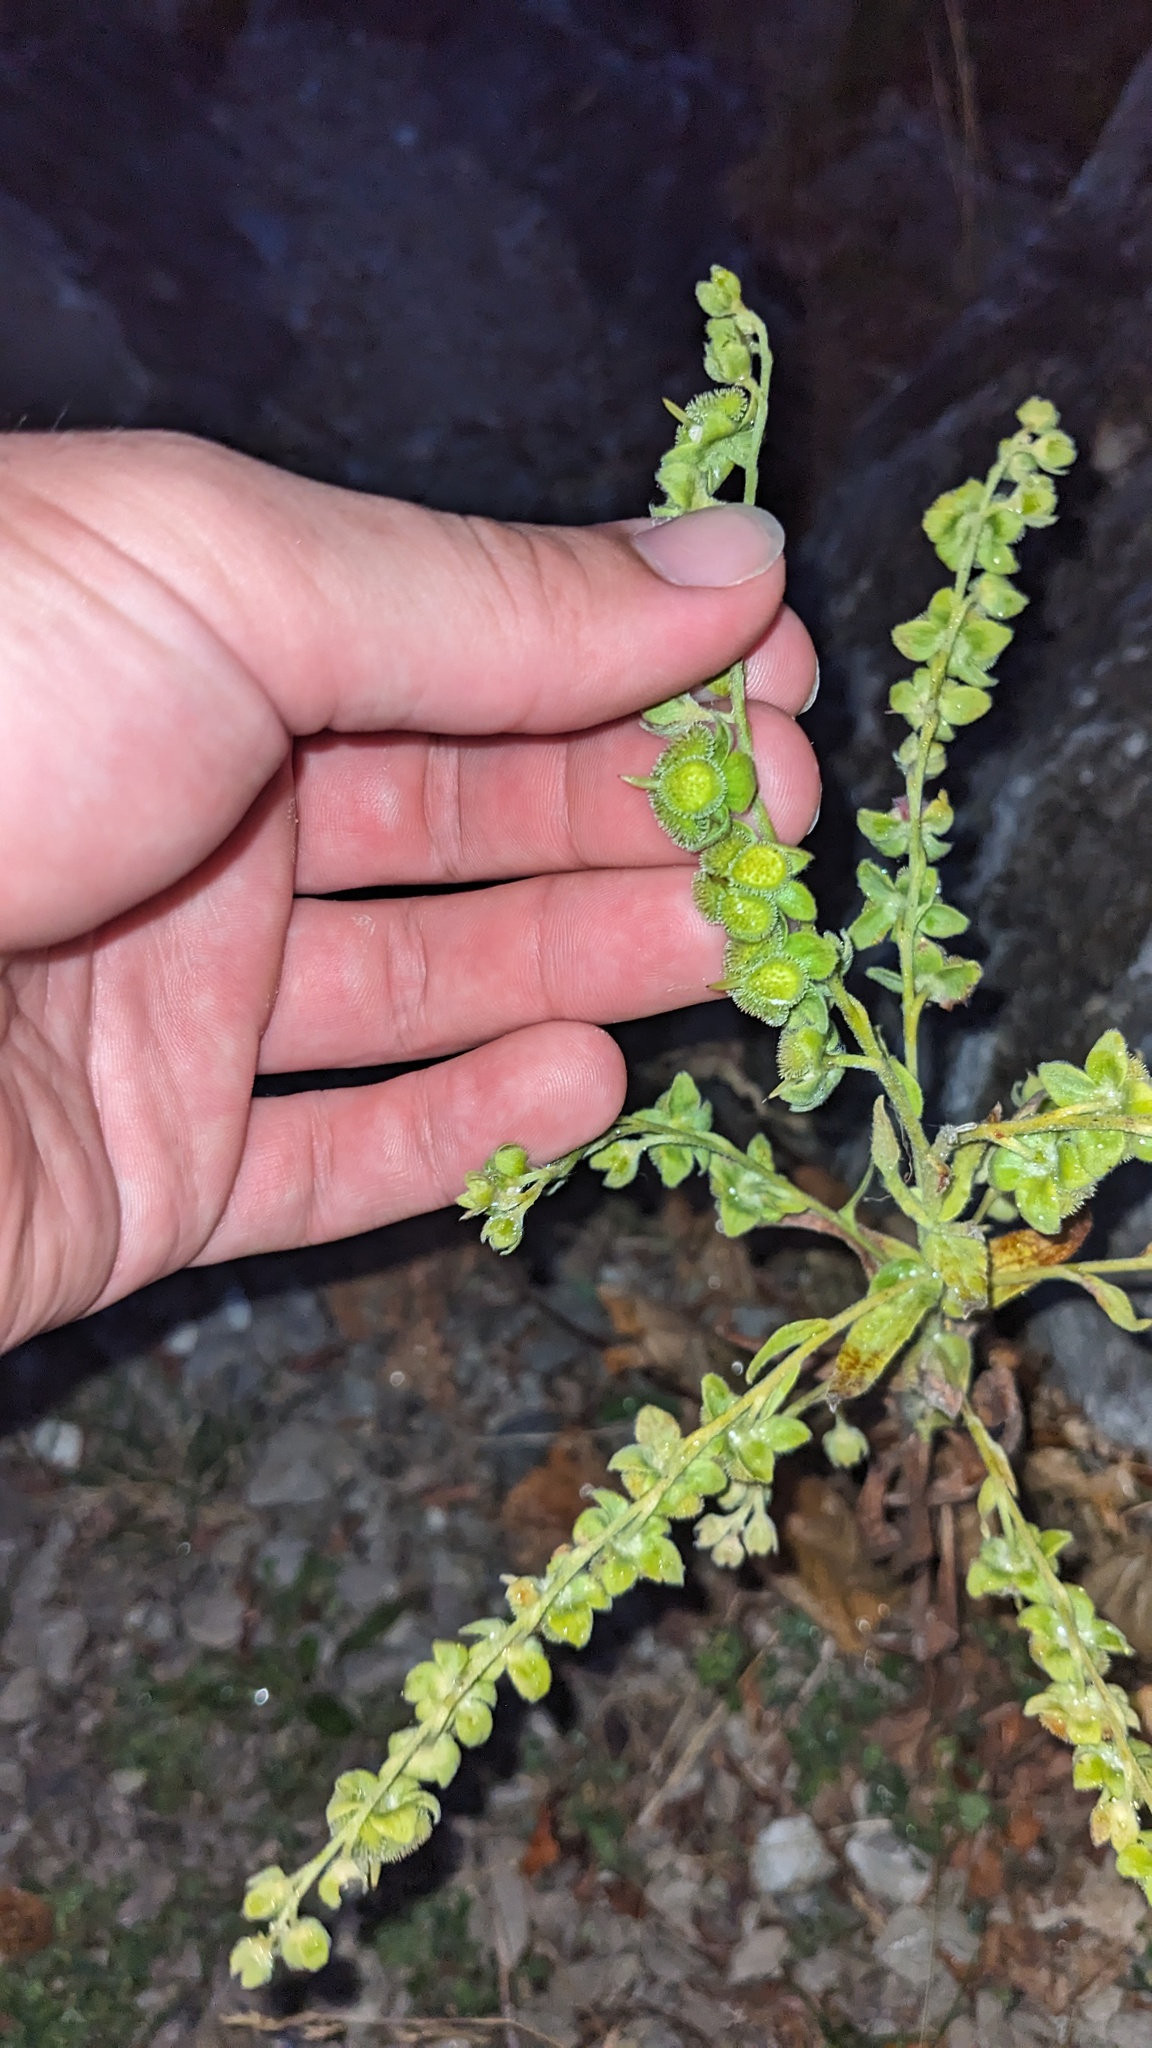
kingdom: Plantae
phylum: Tracheophyta
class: Magnoliopsida
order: Boraginales
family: Boraginaceae
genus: Cynoglossum
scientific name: Cynoglossum officinale
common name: Hound's-tongue
